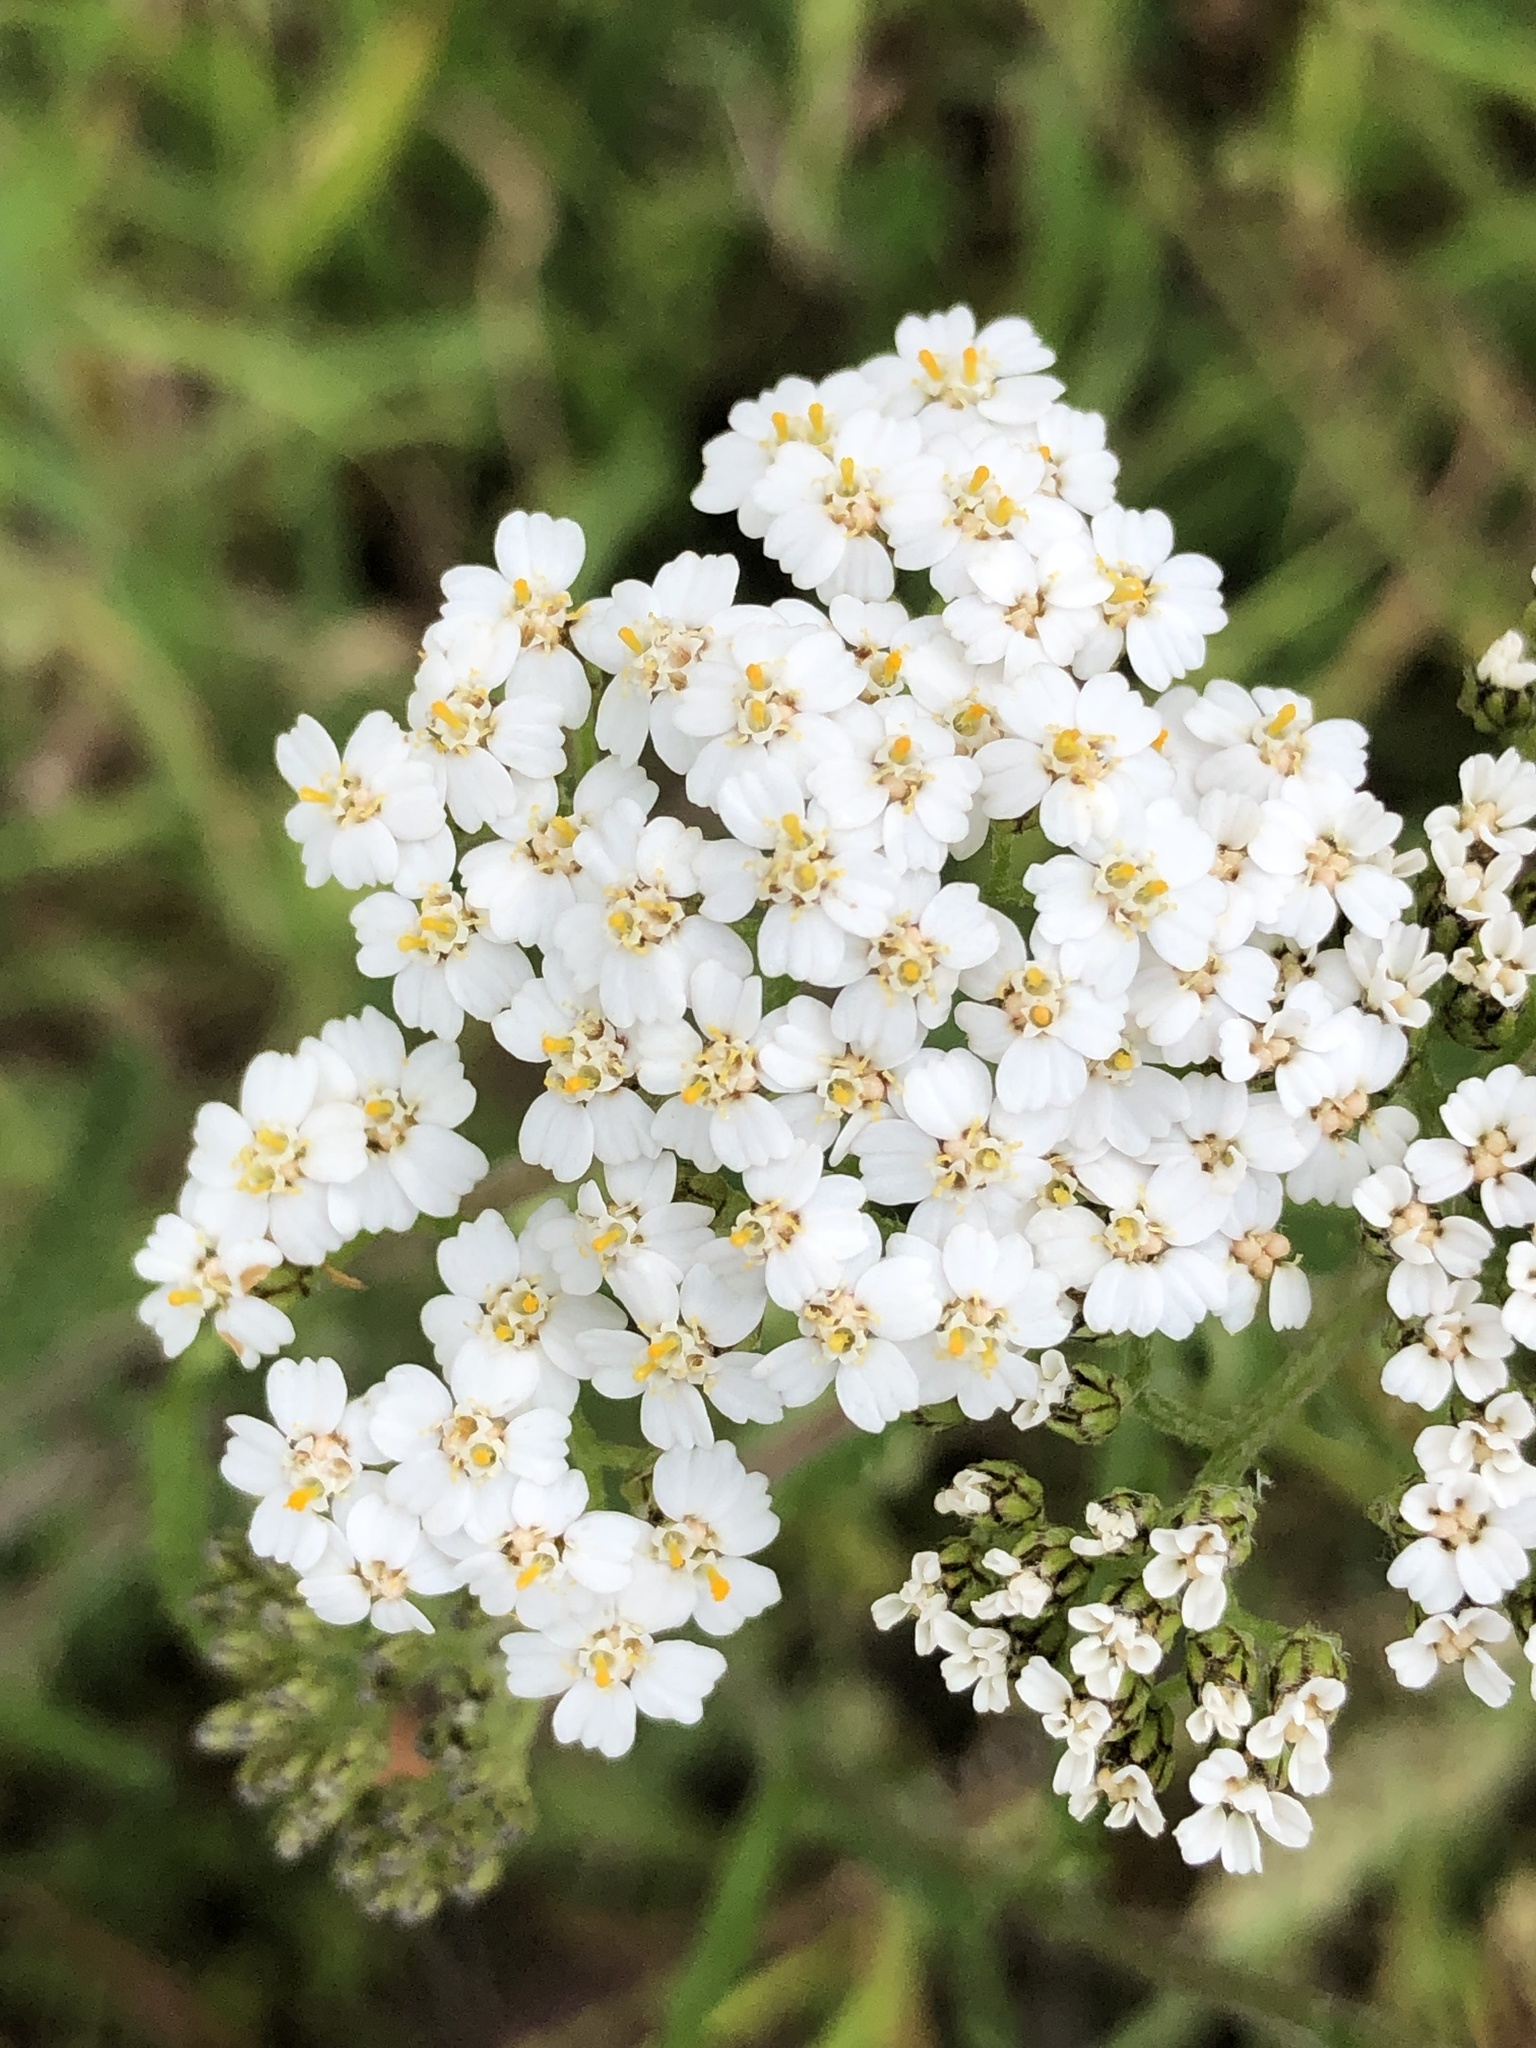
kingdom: Plantae
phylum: Tracheophyta
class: Magnoliopsida
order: Asterales
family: Asteraceae
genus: Achillea
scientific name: Achillea millefolium
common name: Yarrow
